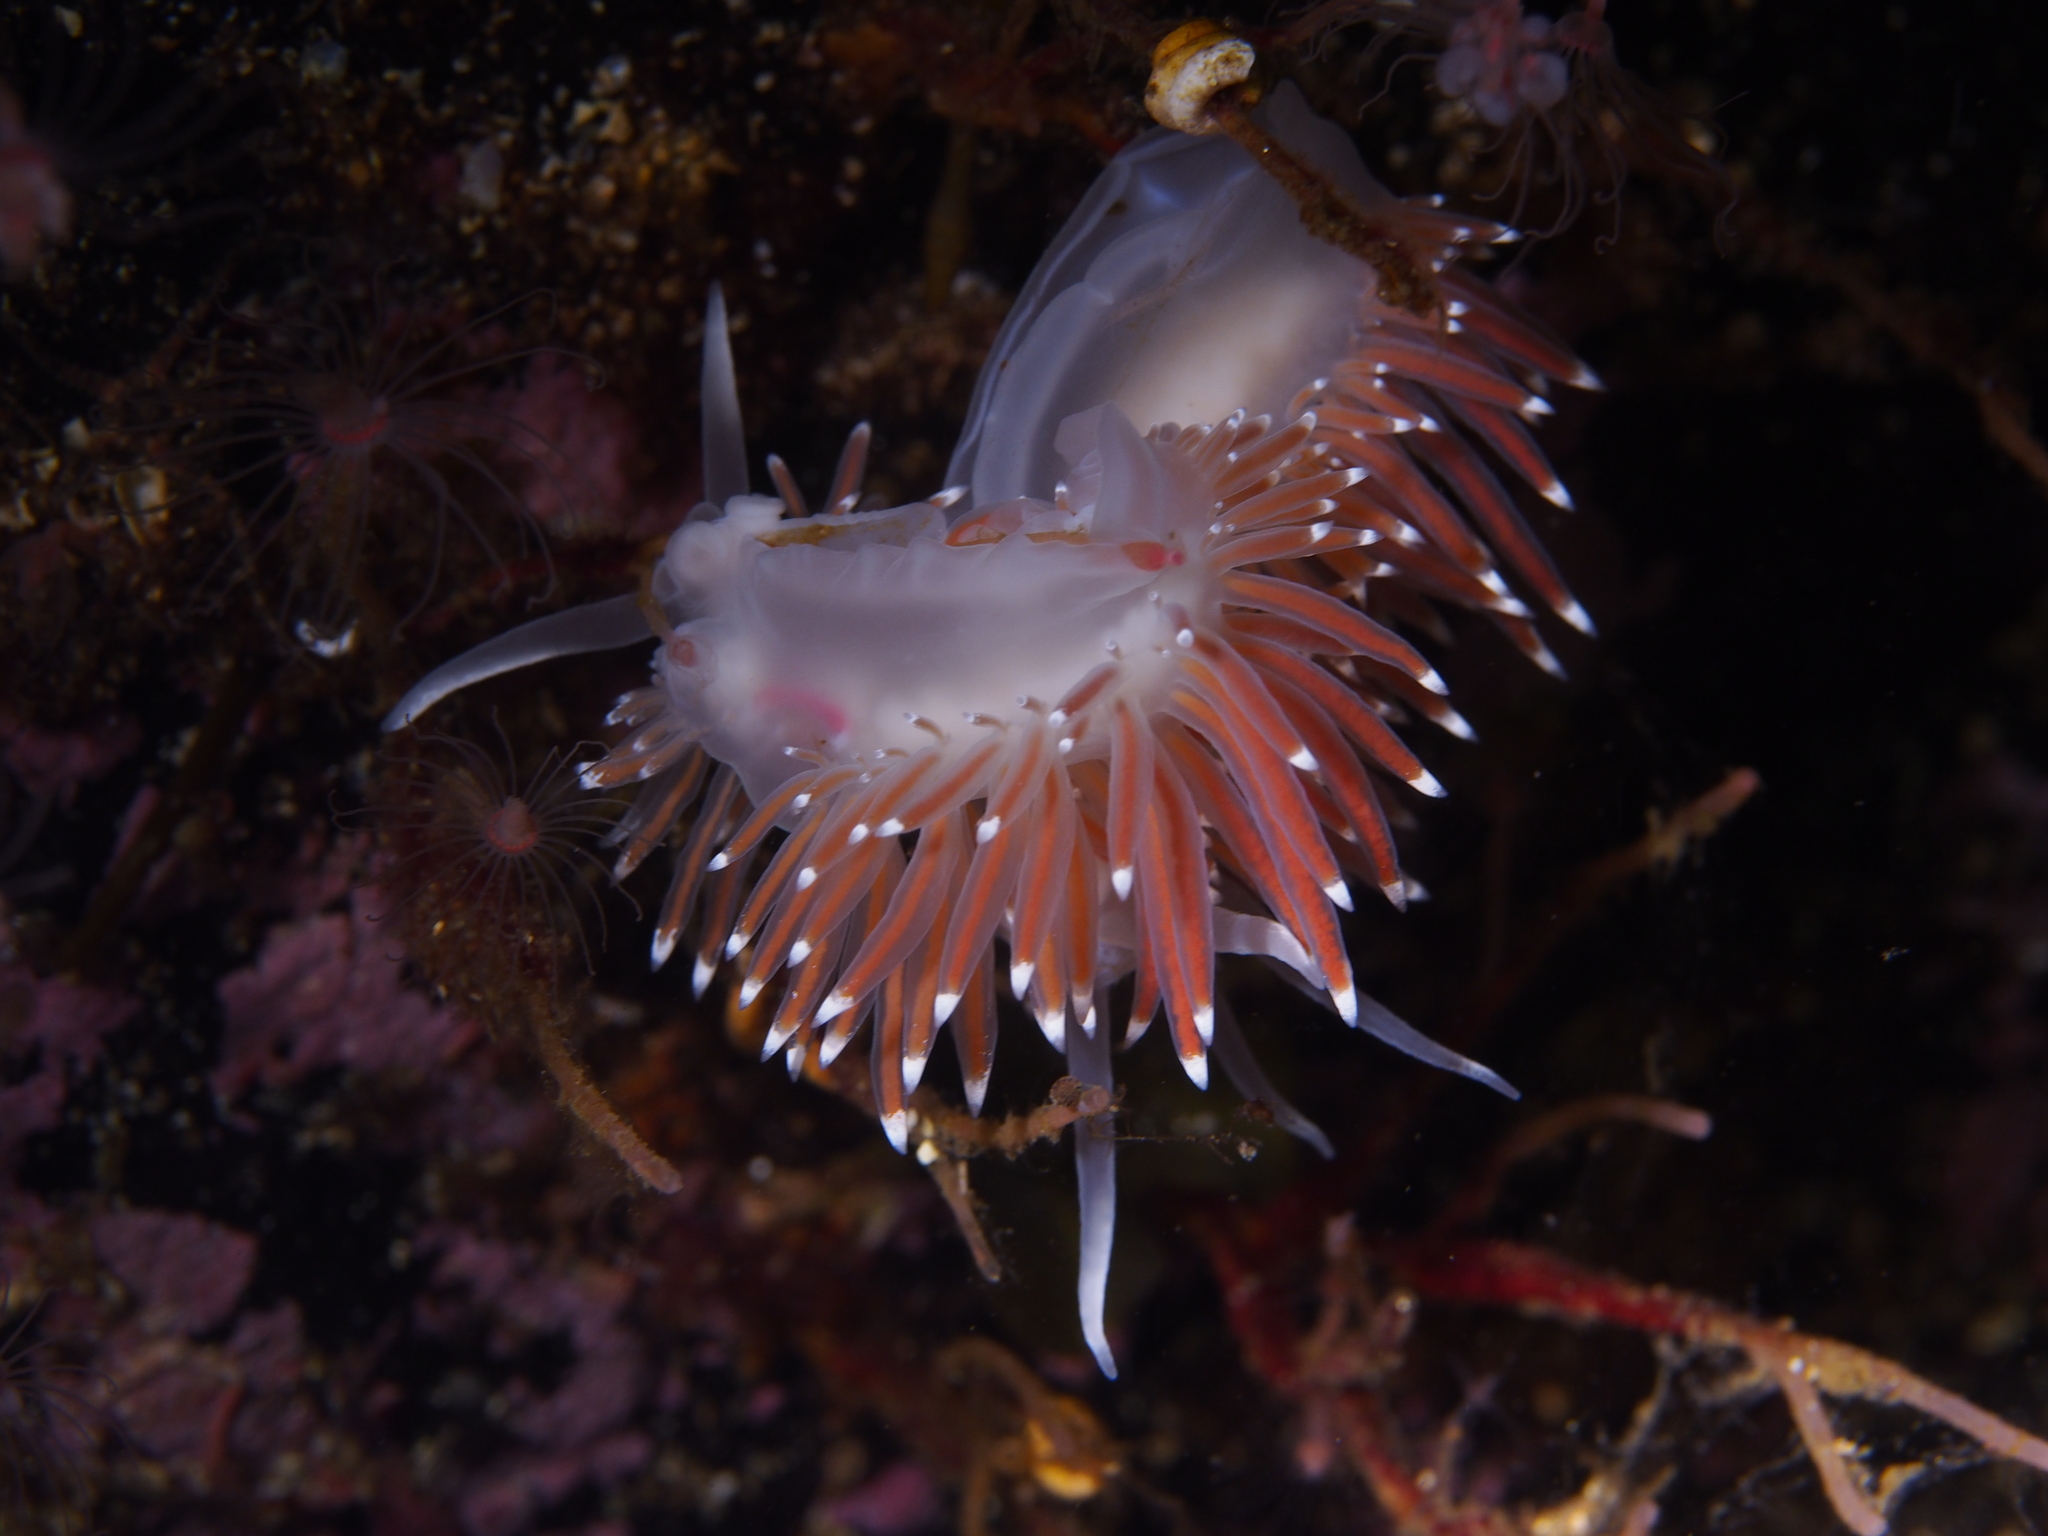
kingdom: Animalia
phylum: Mollusca
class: Gastropoda
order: Nudibranchia
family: Coryphellidae
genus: Coryphella
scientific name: Coryphella browni
